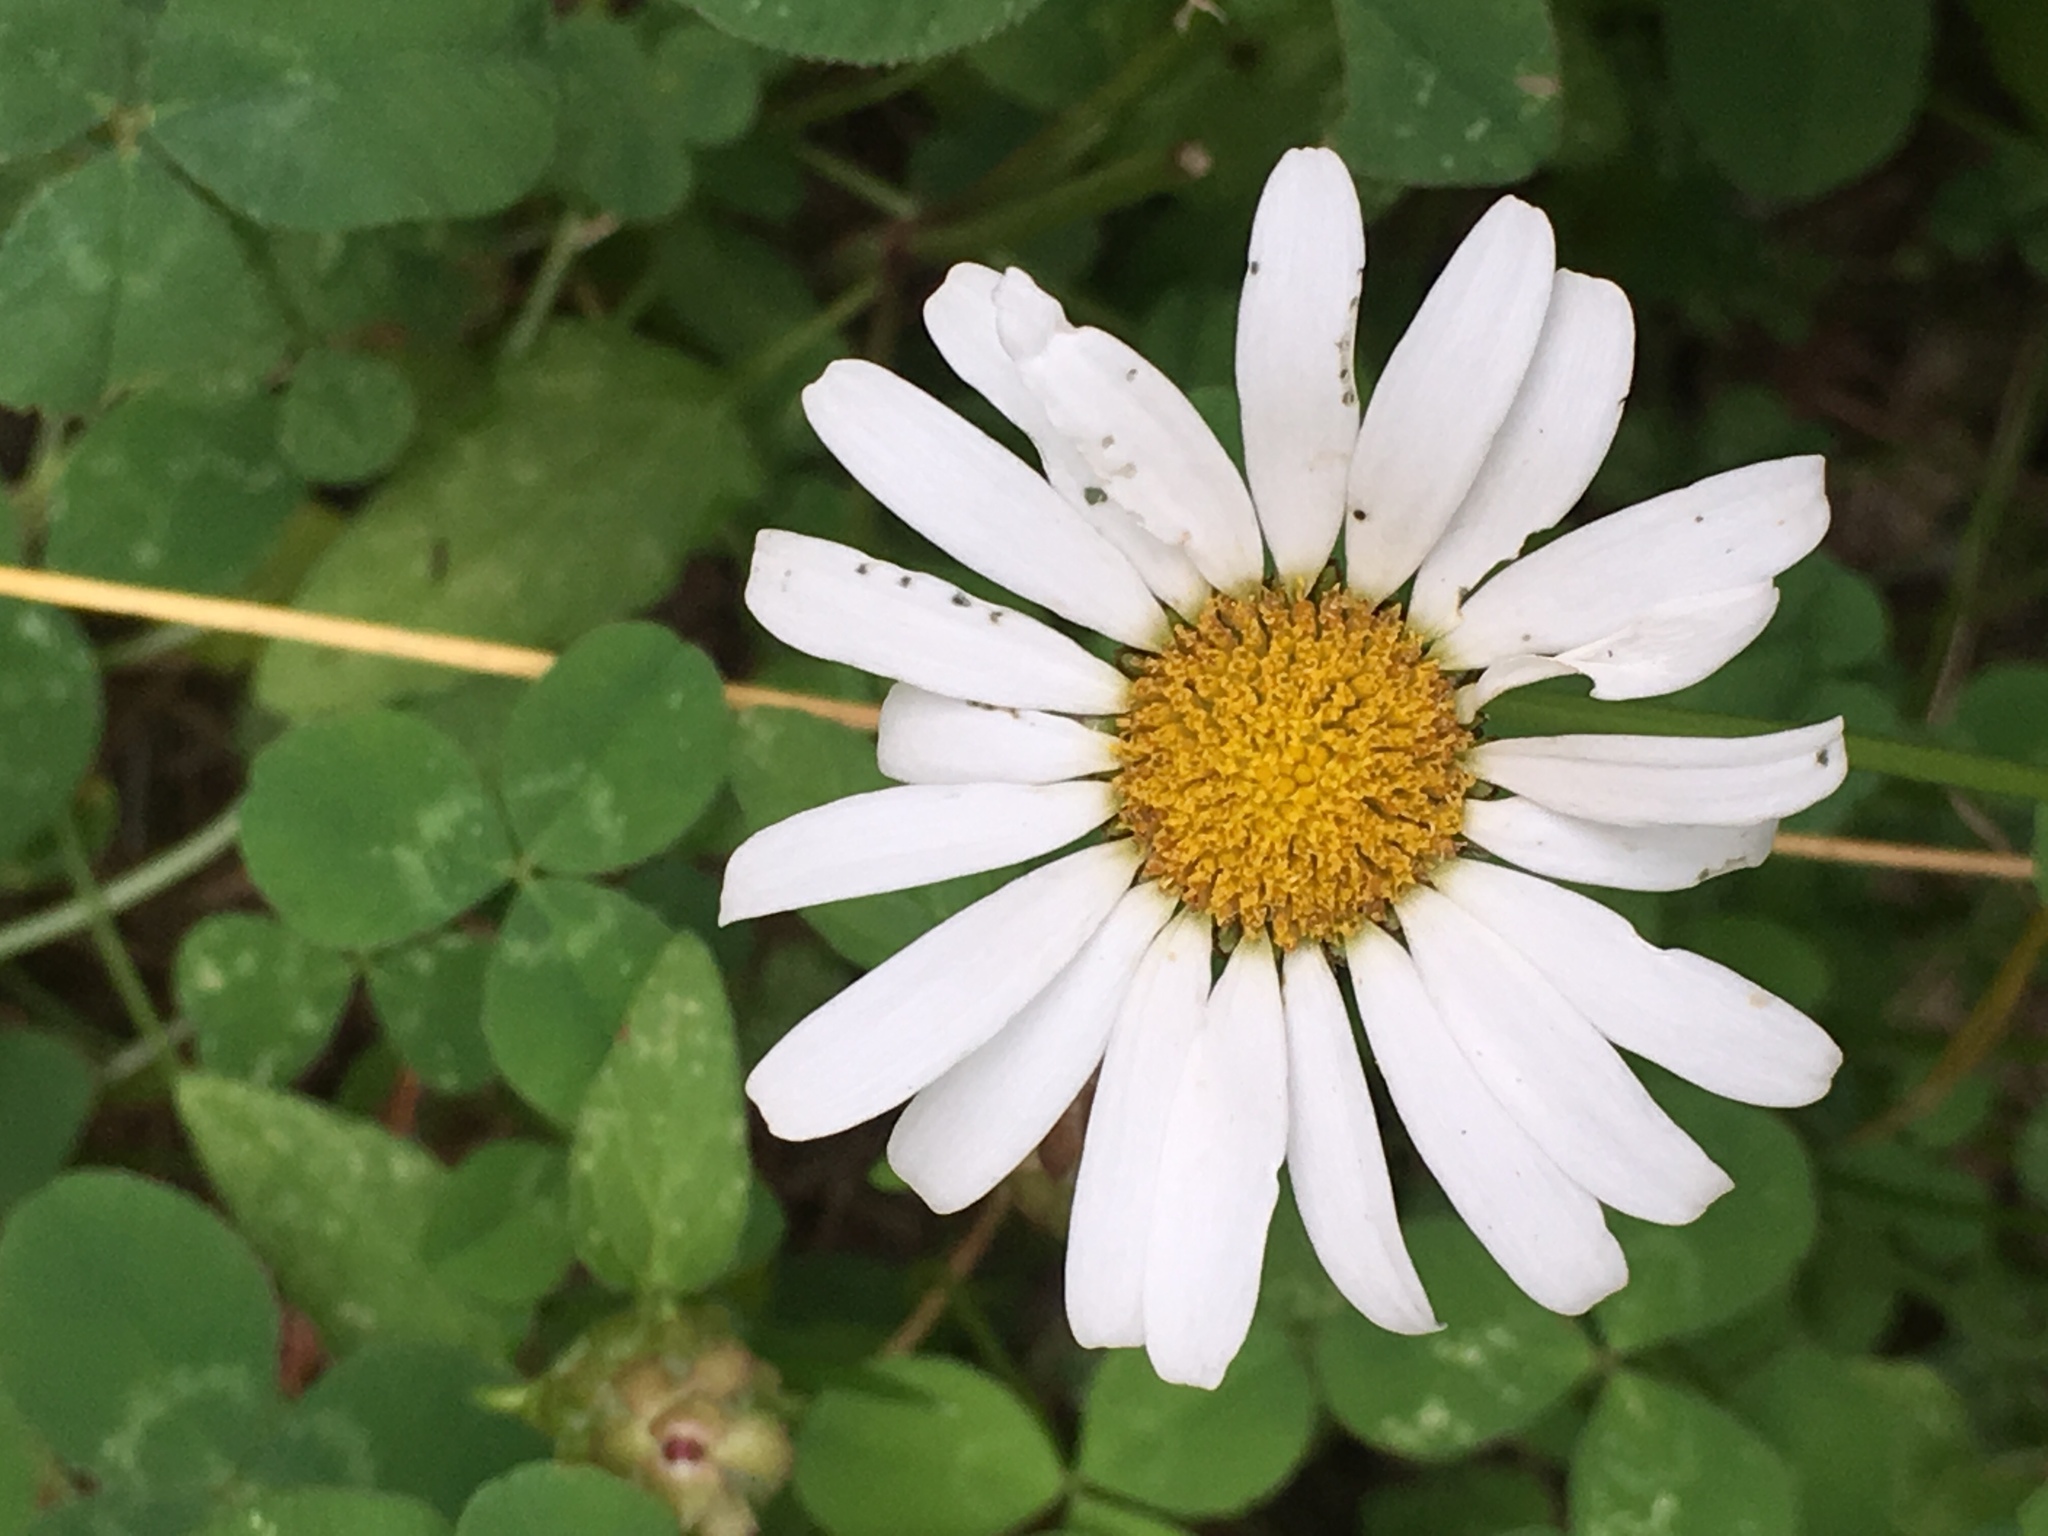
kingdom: Plantae
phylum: Tracheophyta
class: Magnoliopsida
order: Asterales
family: Asteraceae
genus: Leucanthemum
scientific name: Leucanthemum vulgare
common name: Oxeye daisy
